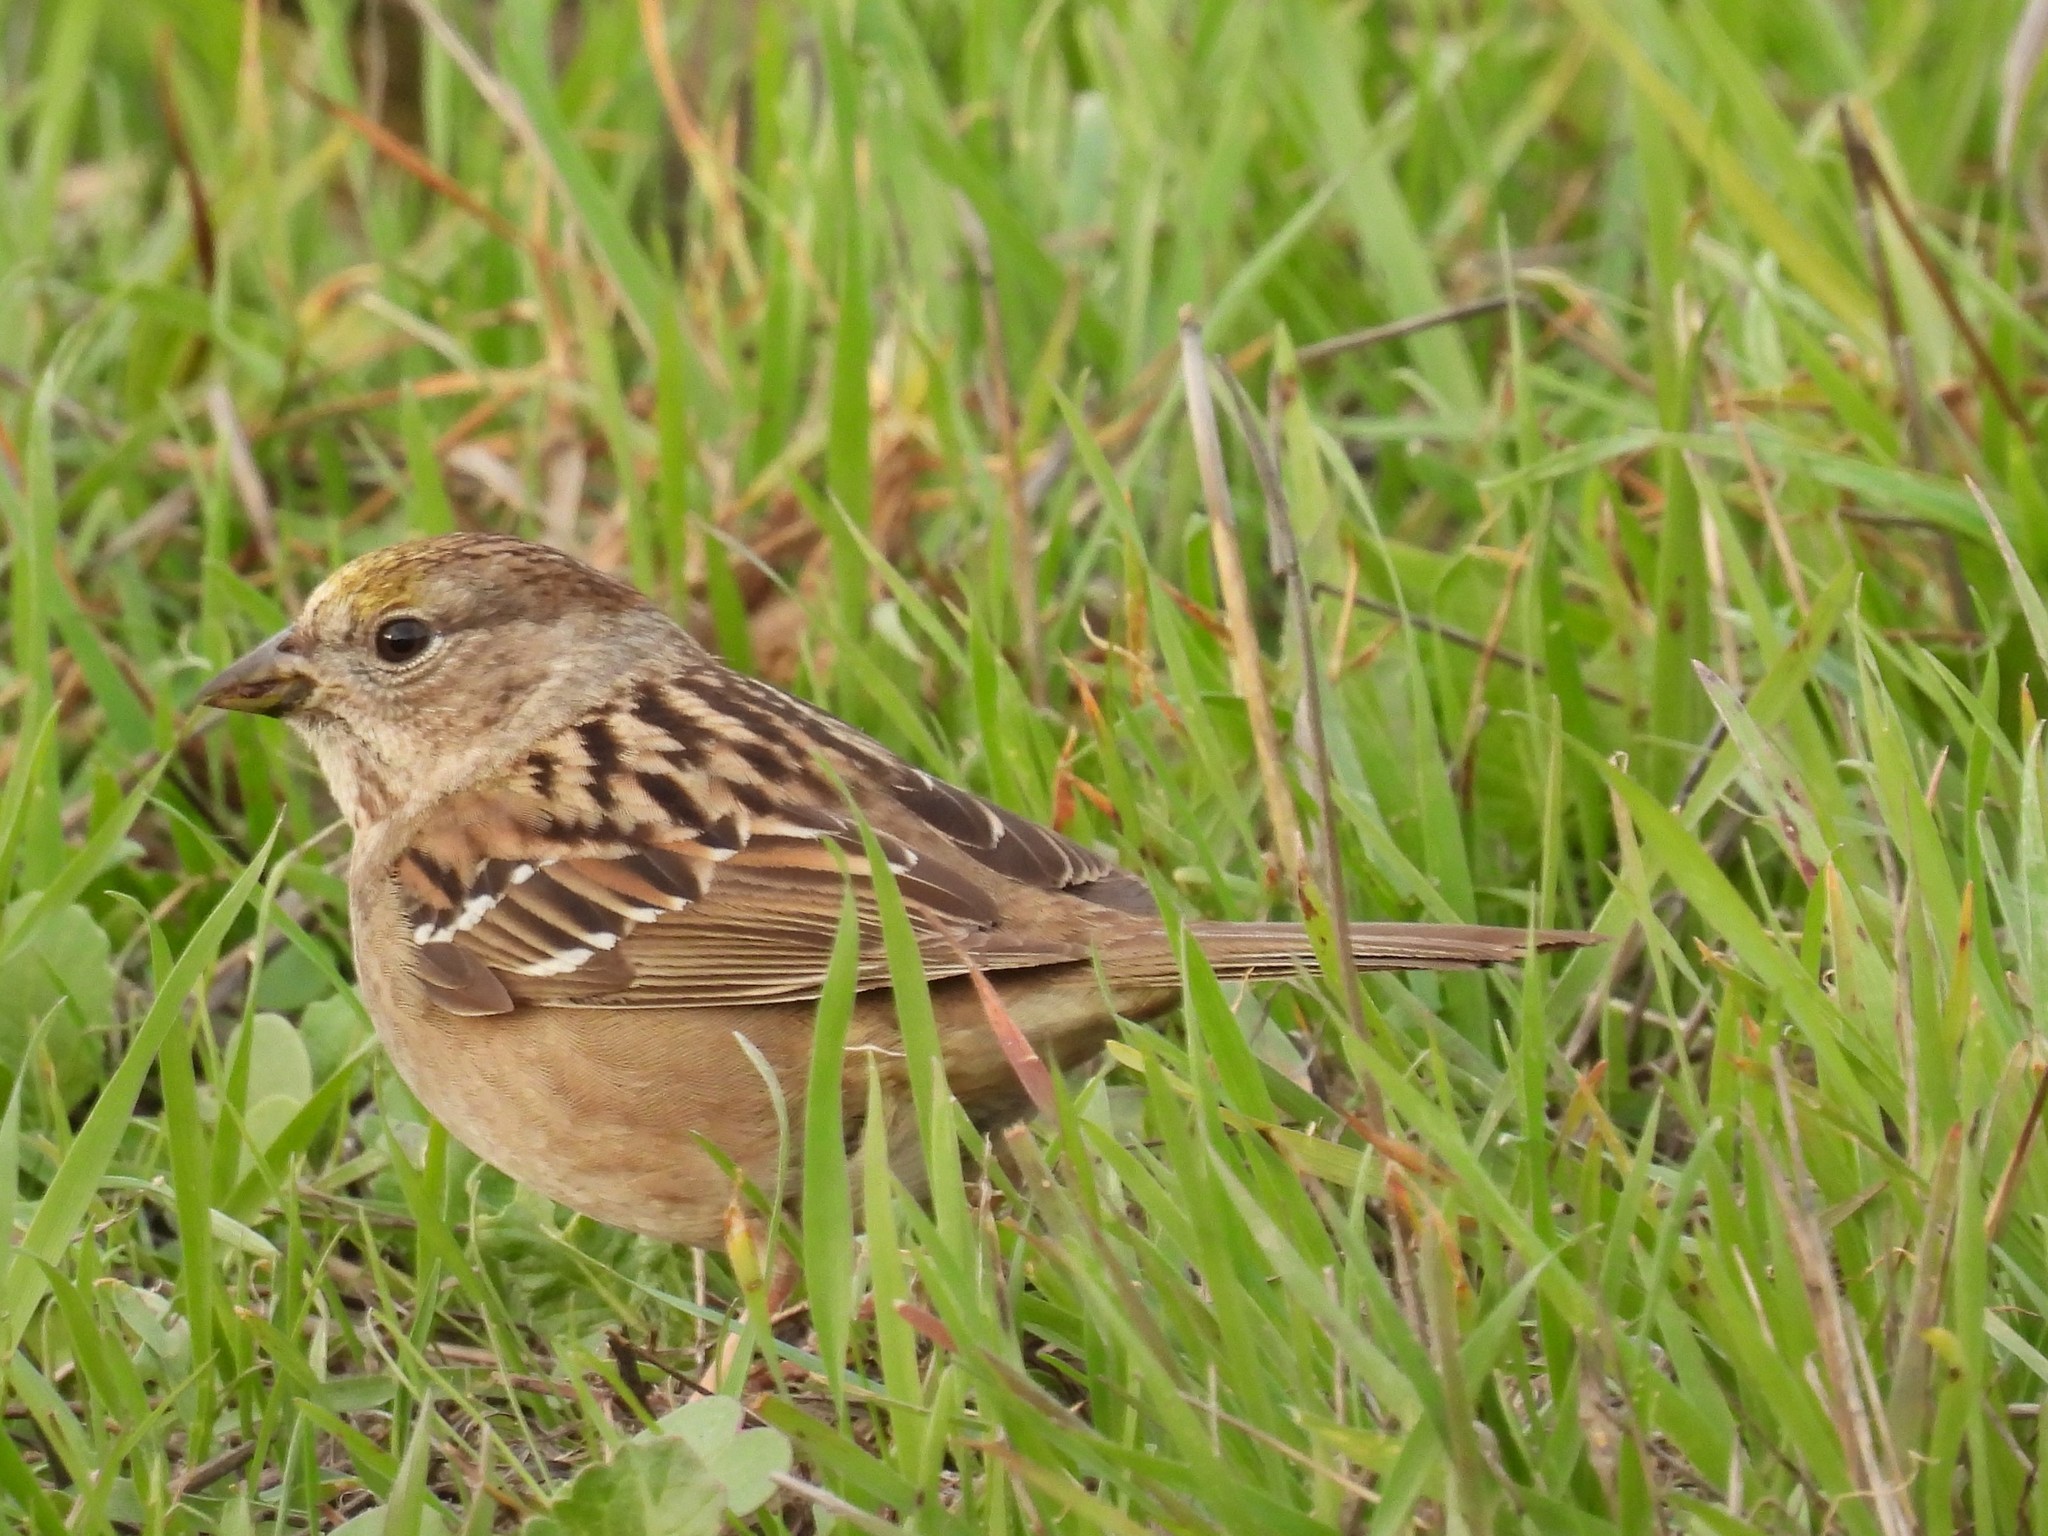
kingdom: Animalia
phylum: Chordata
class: Aves
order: Passeriformes
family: Passerellidae
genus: Zonotrichia
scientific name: Zonotrichia atricapilla
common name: Golden-crowned sparrow
